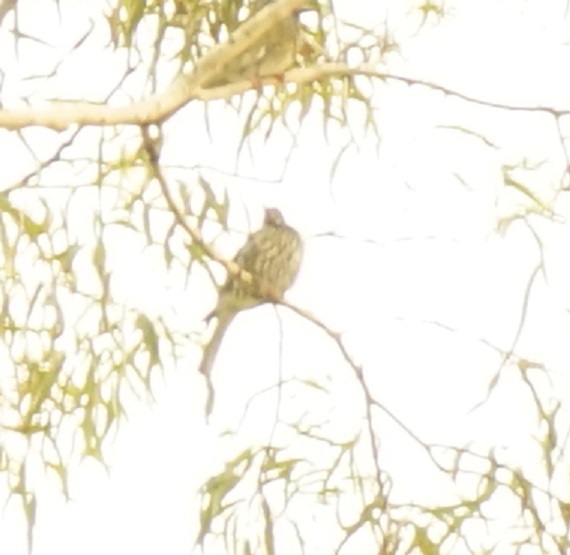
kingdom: Animalia
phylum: Chordata
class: Aves
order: Passeriformes
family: Oriolidae
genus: Sphecotheres
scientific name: Sphecotheres vieilloti
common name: Australasian figbird
